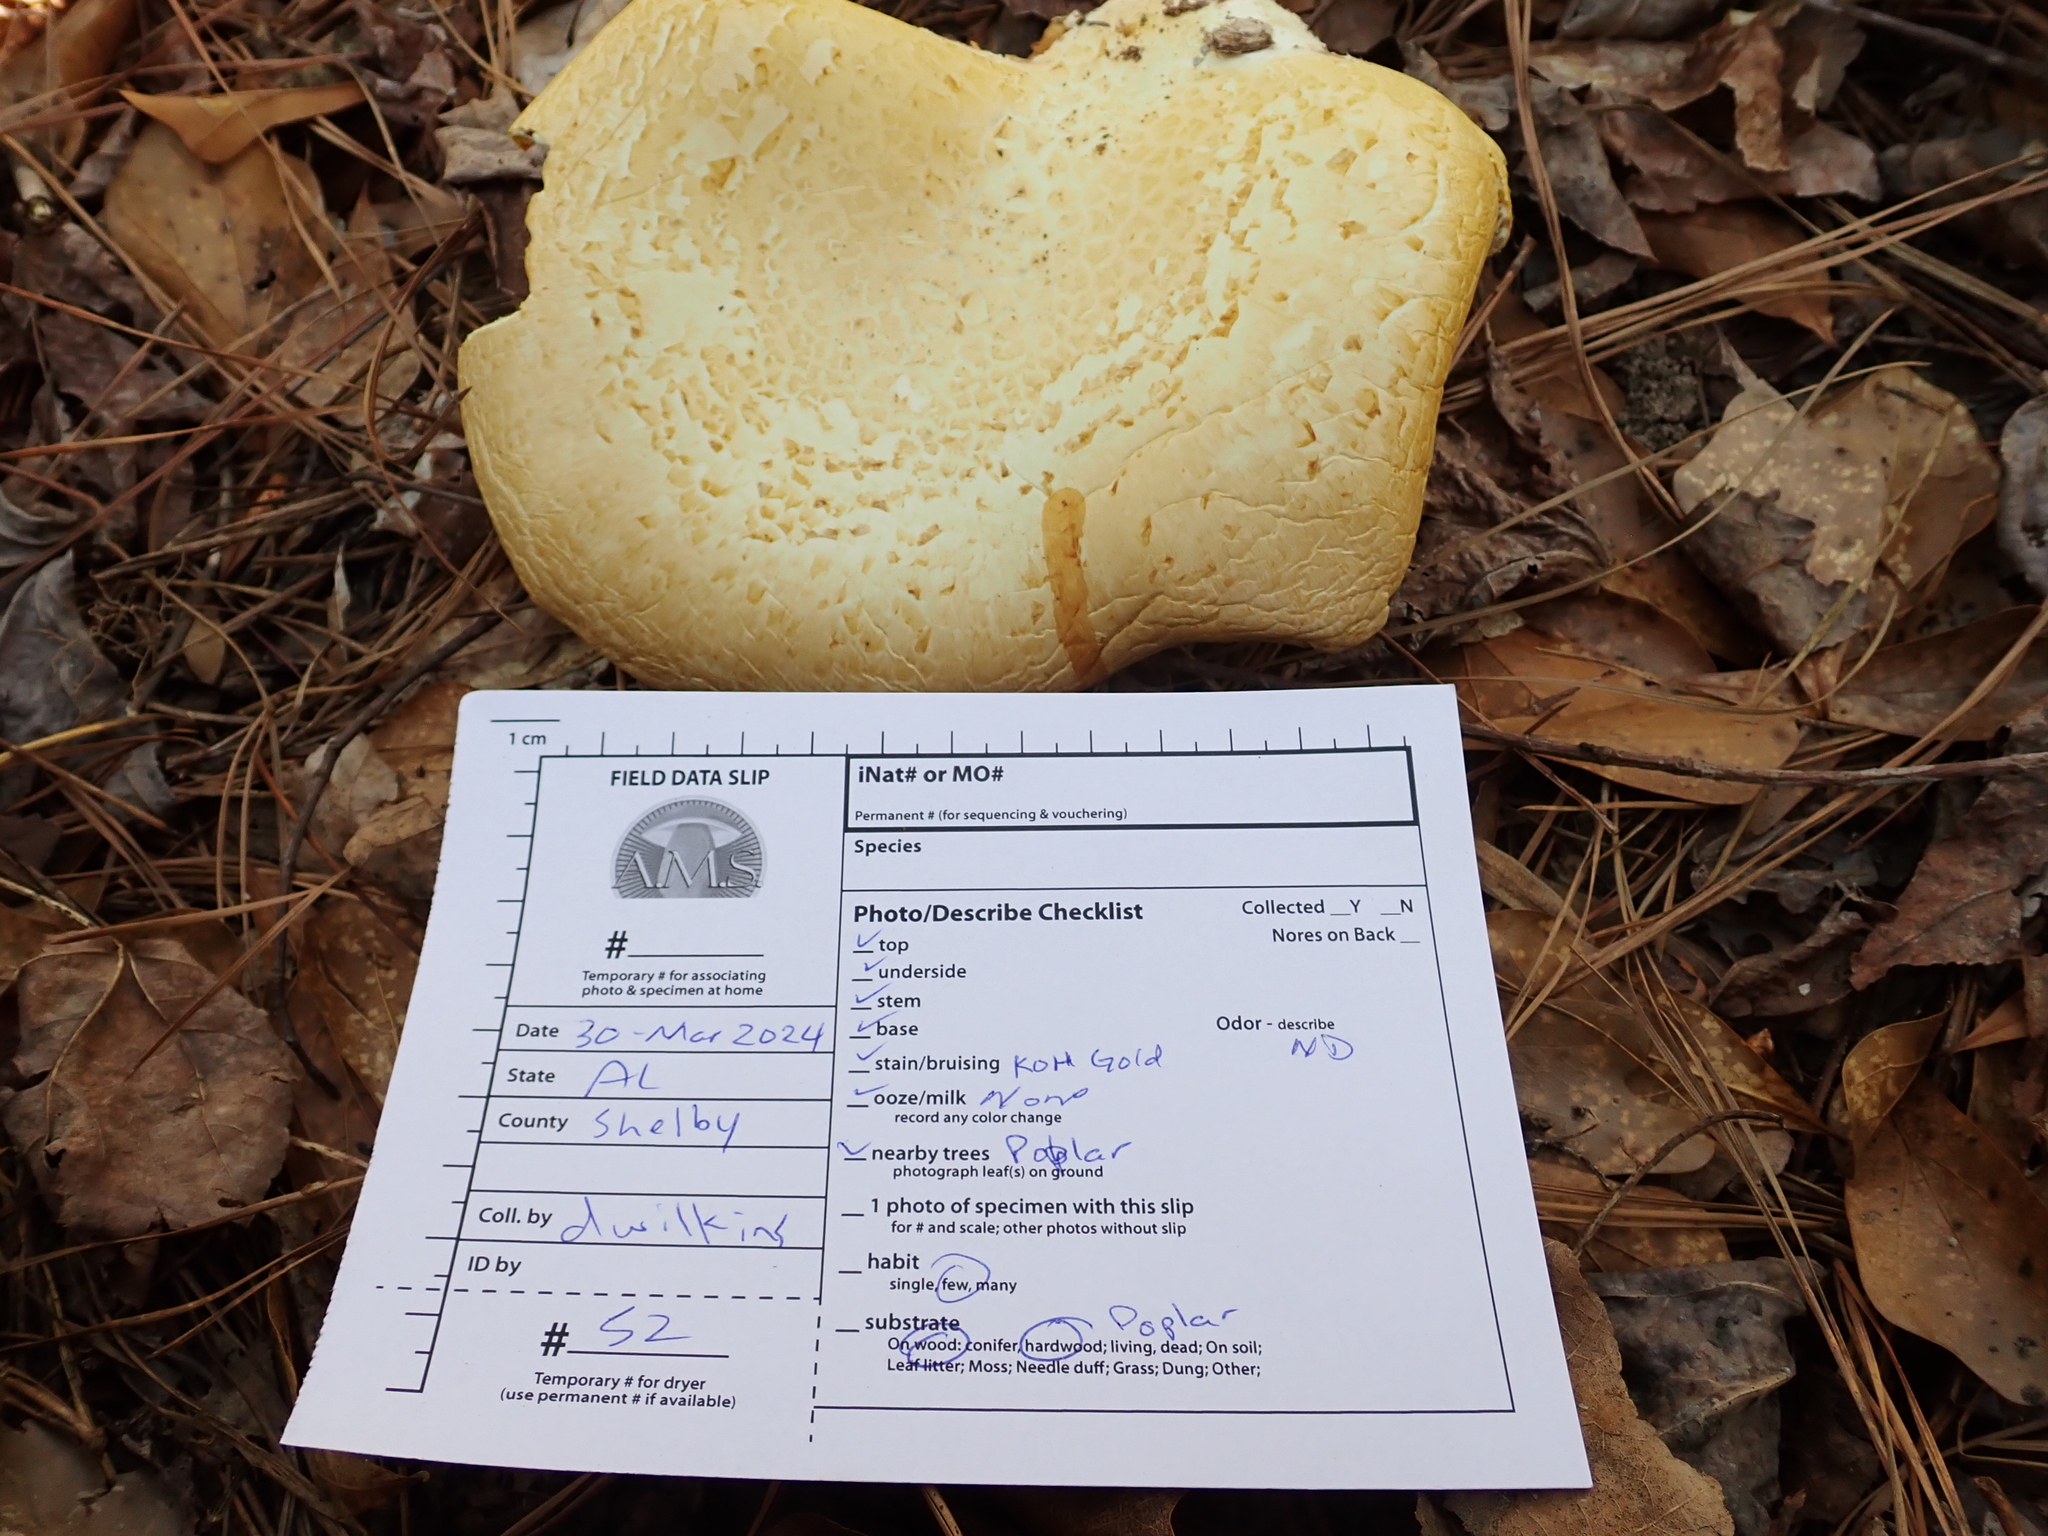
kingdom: Fungi
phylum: Basidiomycota
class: Agaricomycetes
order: Polyporales
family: Polyporaceae
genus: Lentinus
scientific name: Lentinus levis
